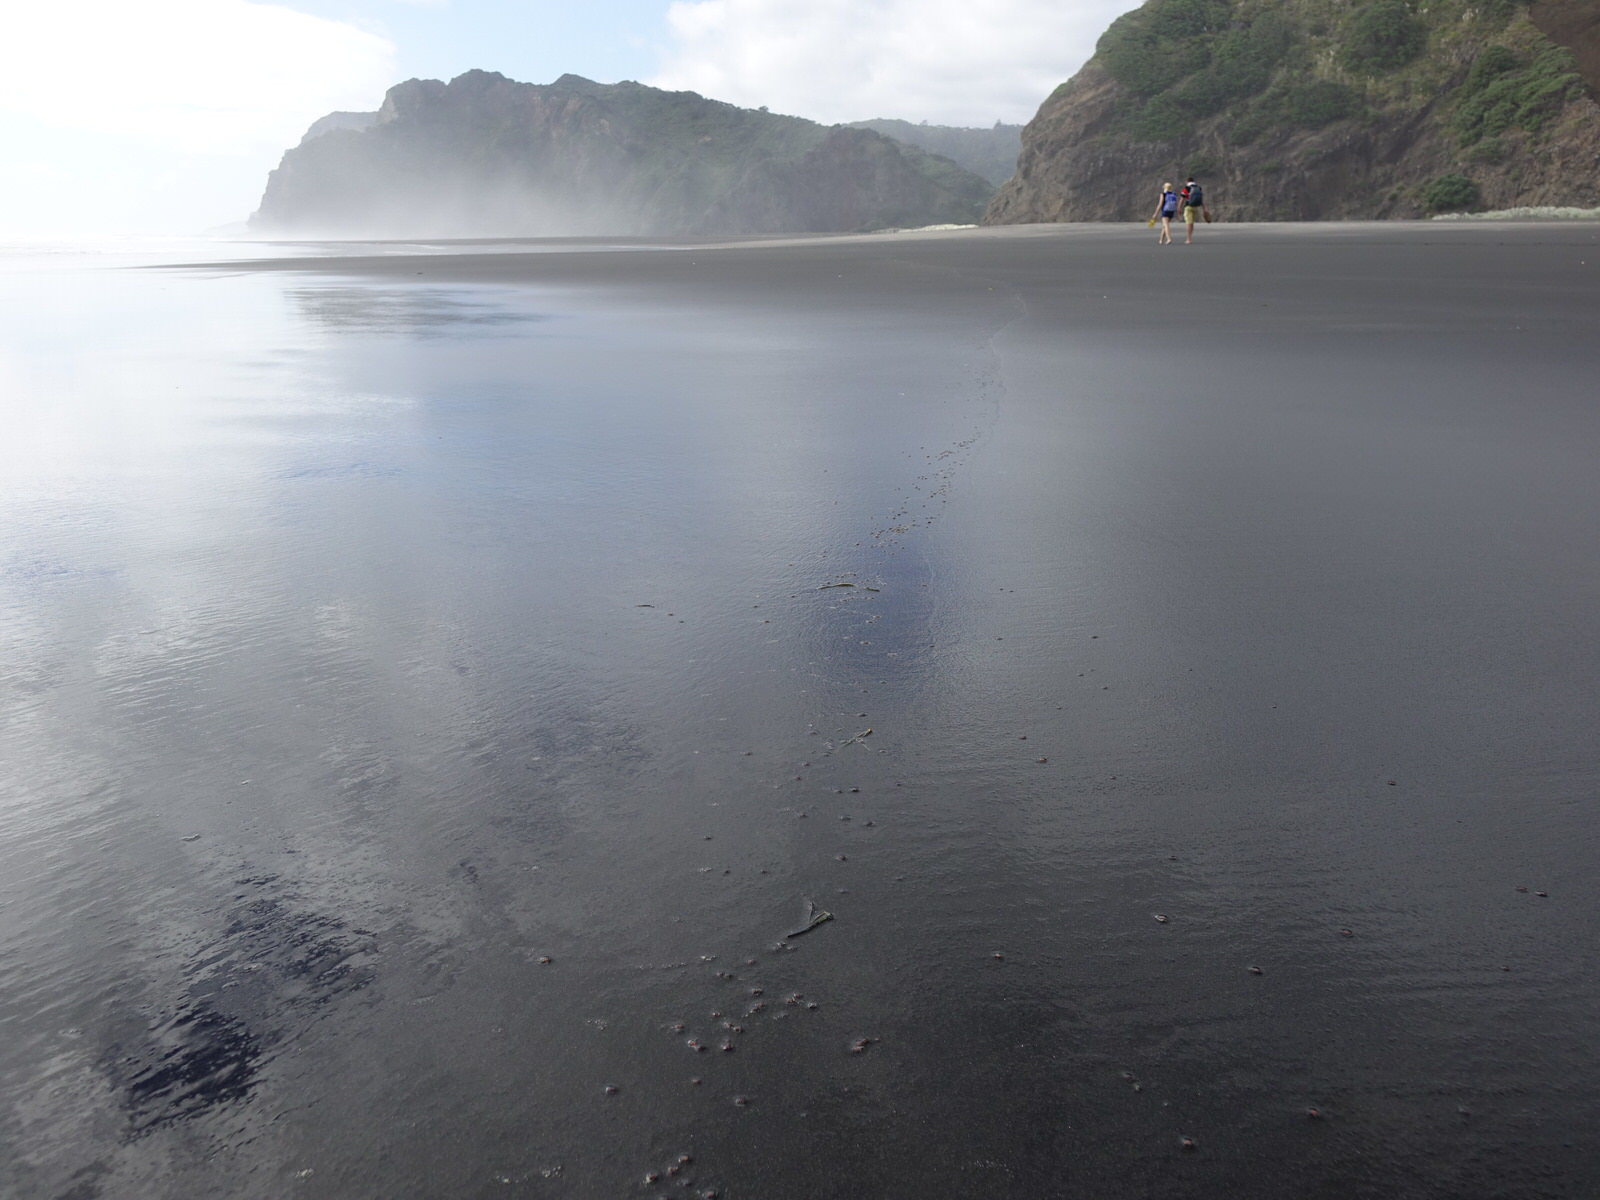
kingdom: Animalia
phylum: Cnidaria
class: Hydrozoa
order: Anthoathecata
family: Oceaniidae
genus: Turritopsis
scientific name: Turritopsis rubra
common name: Crimson jelly
